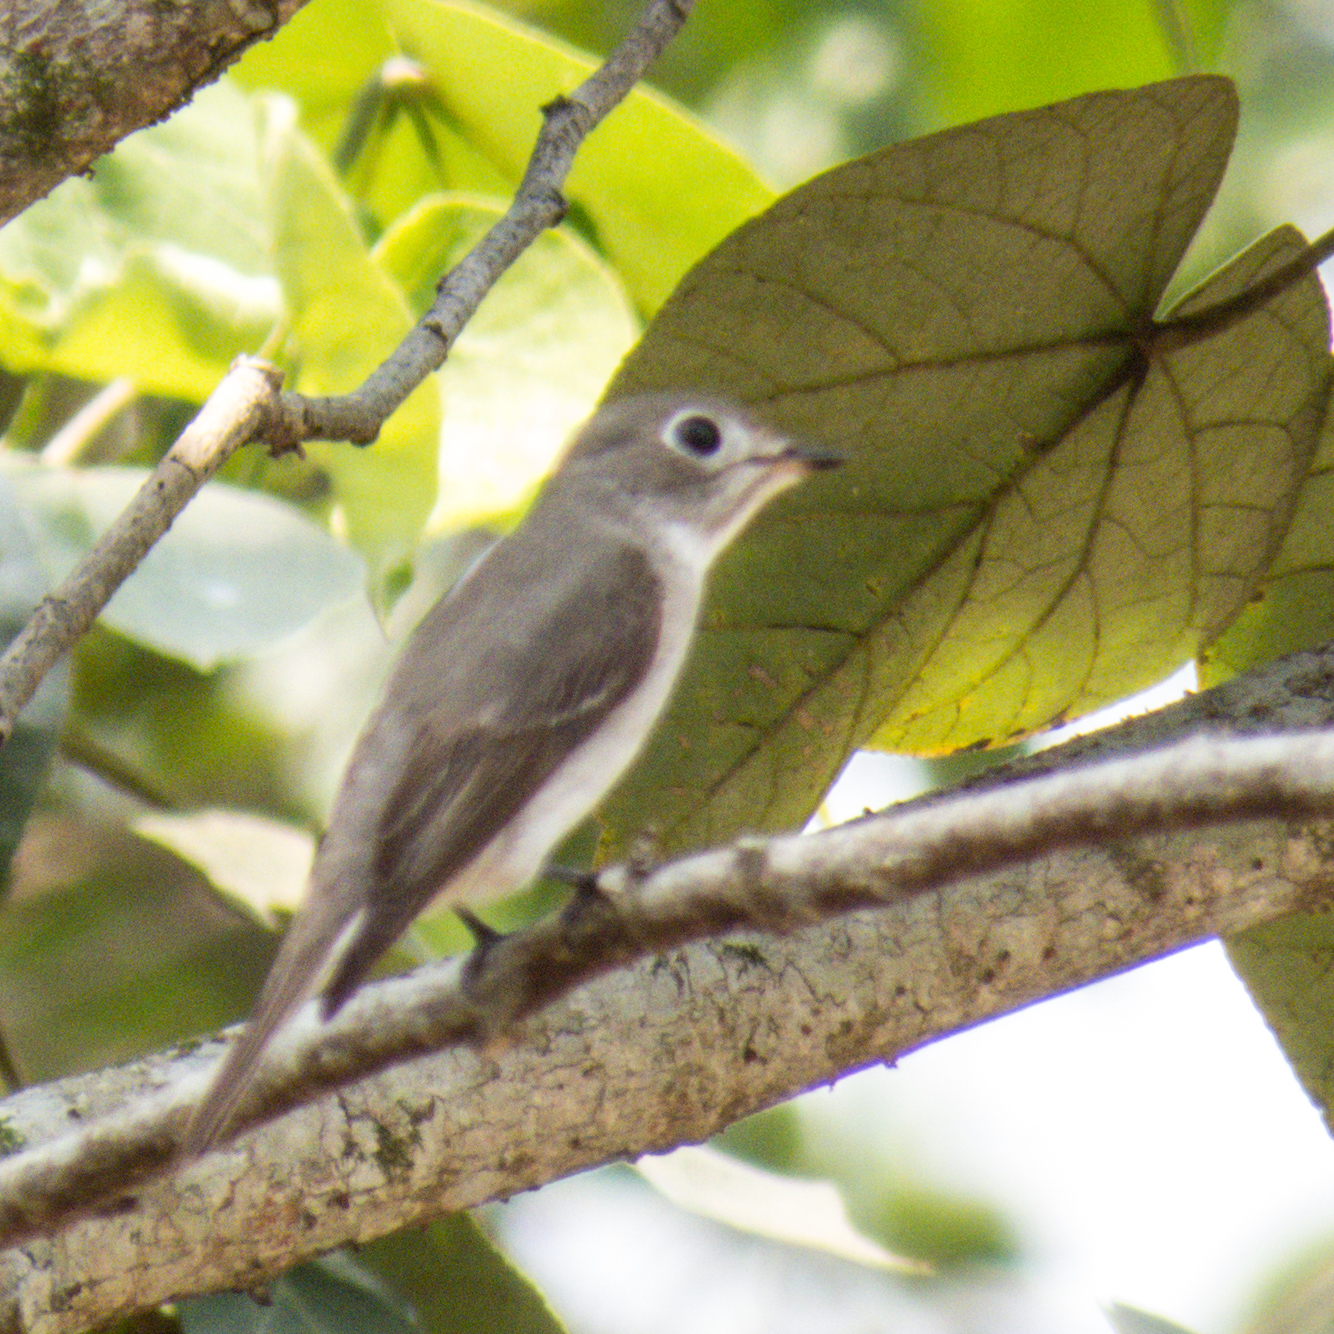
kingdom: Animalia
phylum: Chordata
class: Aves
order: Passeriformes
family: Muscicapidae
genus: Muscicapa
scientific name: Muscicapa latirostris
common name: Asian brown flycatcher
